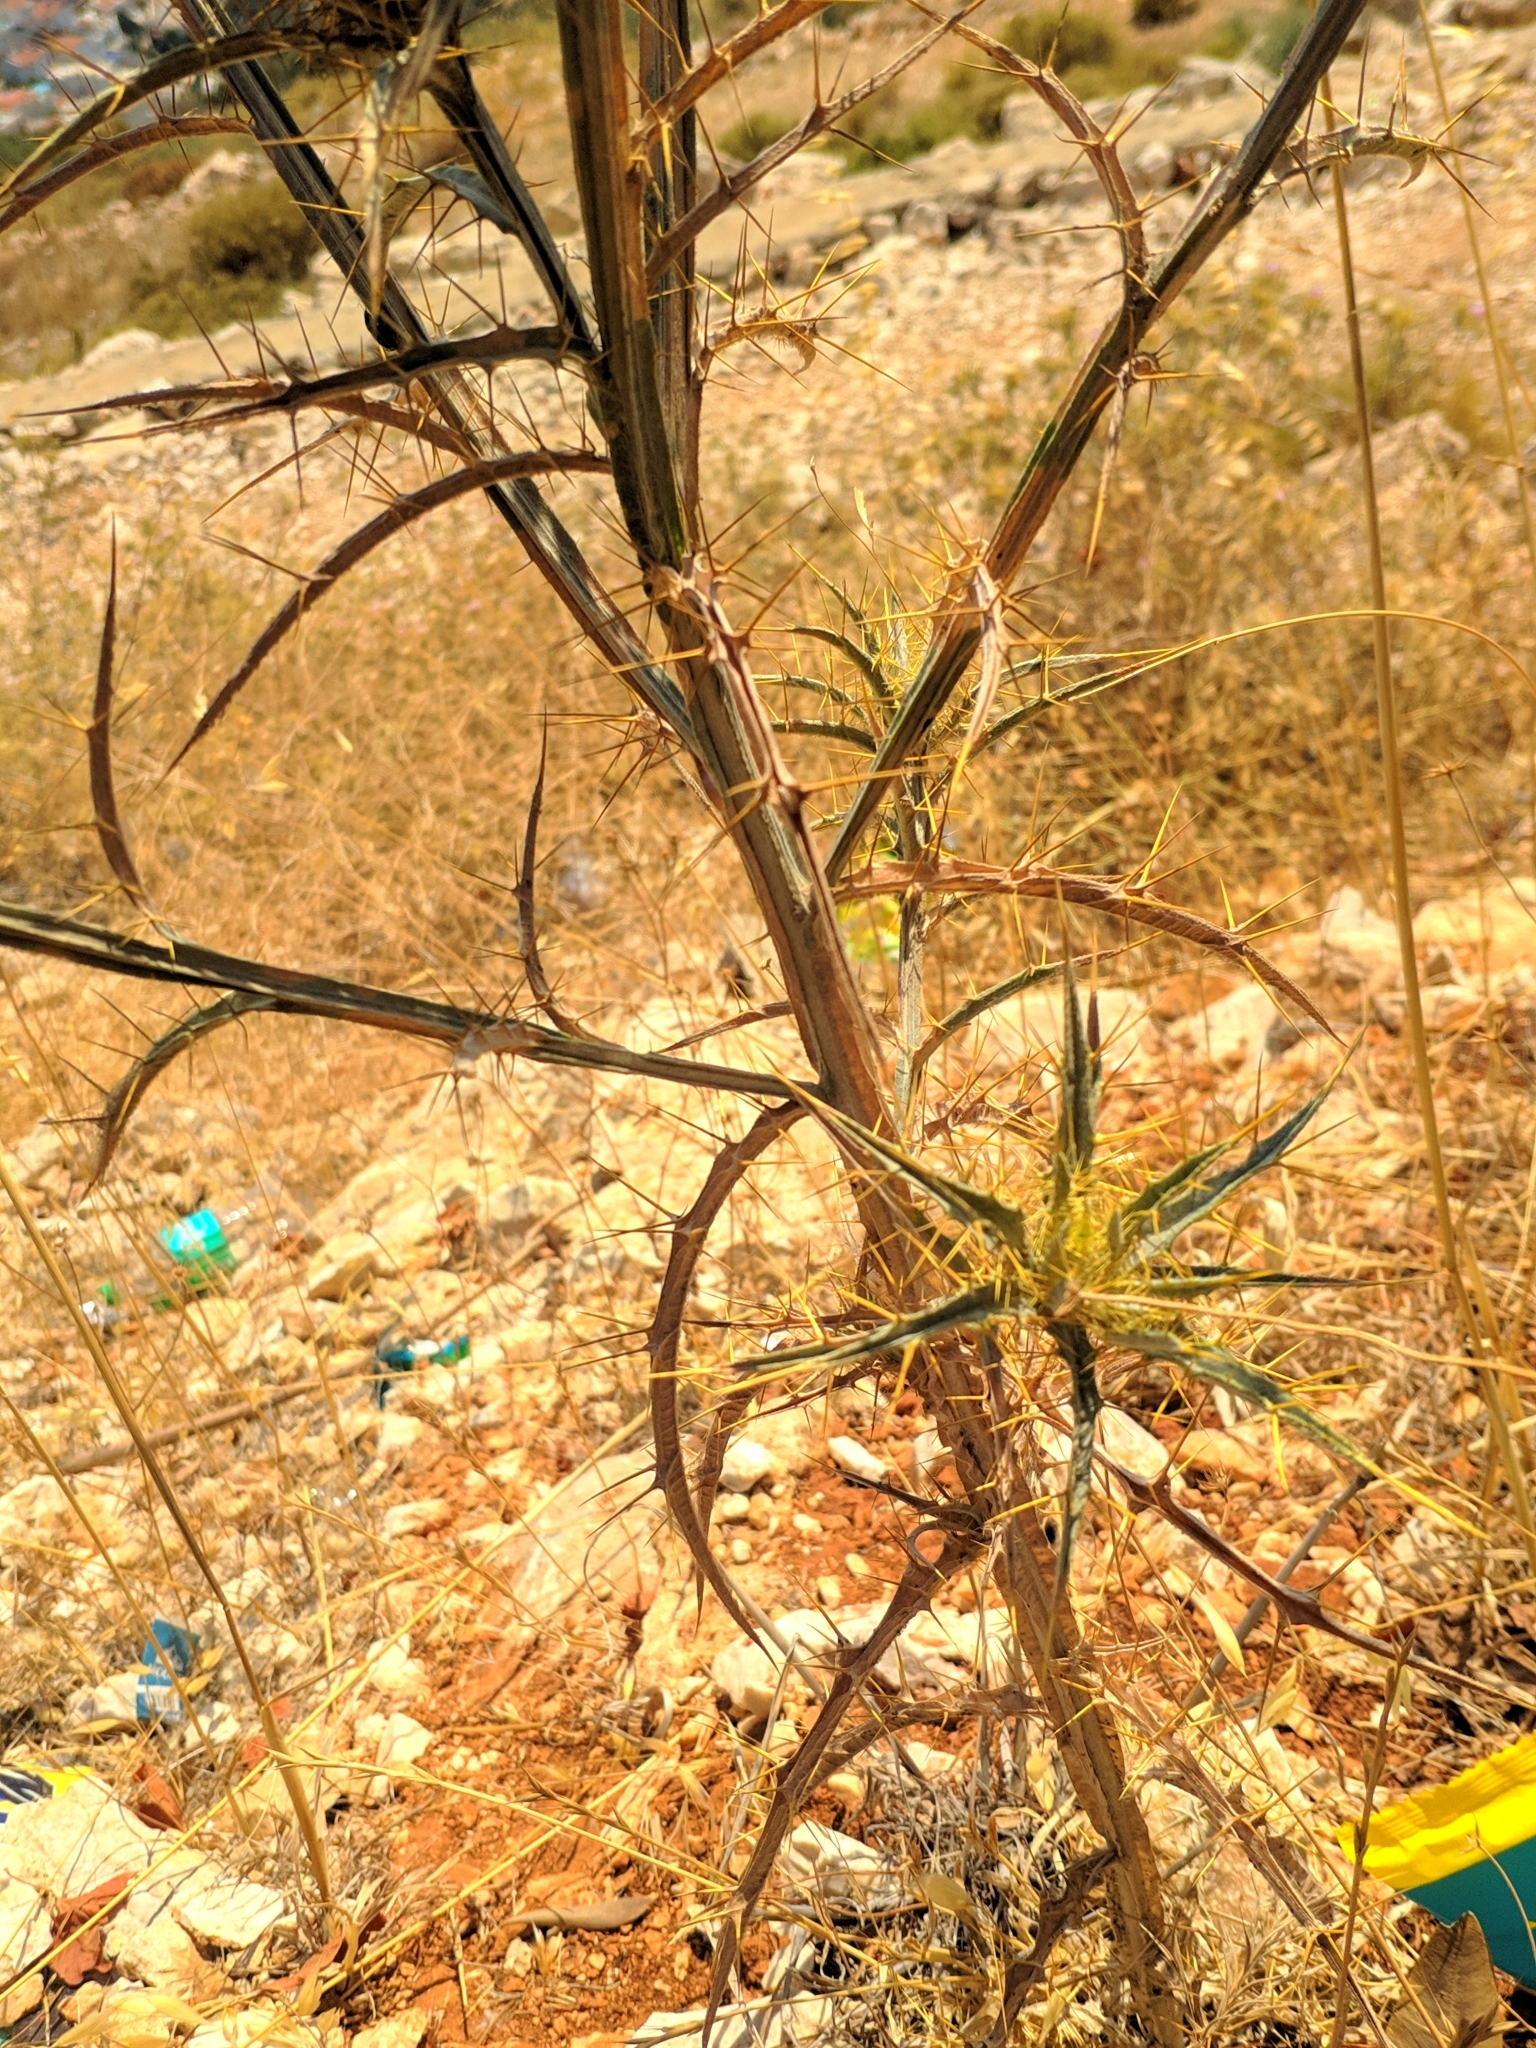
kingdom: Plantae
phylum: Tracheophyta
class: Magnoliopsida
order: Asterales
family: Asteraceae
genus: Picnomon
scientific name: Picnomon acarna
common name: Soldier thistle
